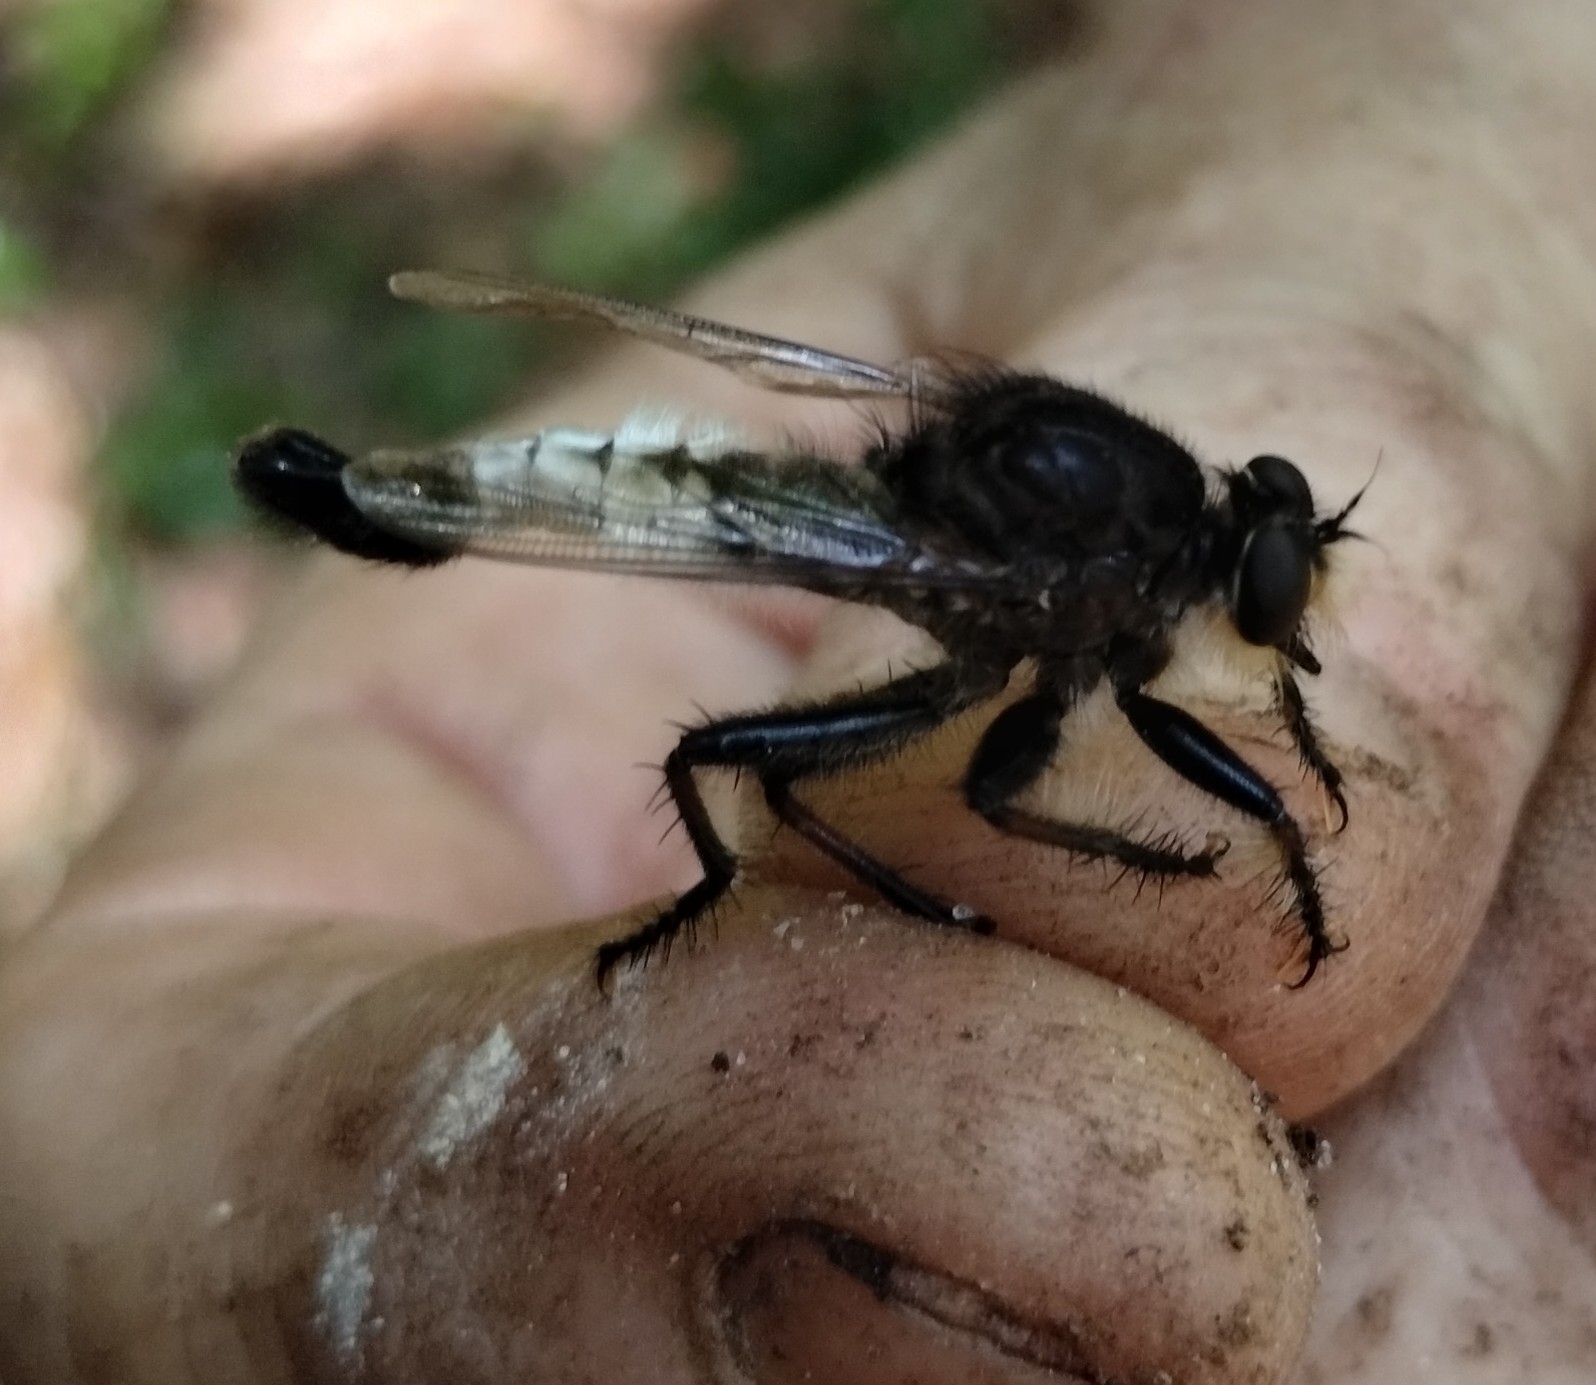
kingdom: Animalia
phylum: Arthropoda
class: Insecta
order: Diptera
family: Asilidae
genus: Efferia
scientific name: Efferia nemoralis
